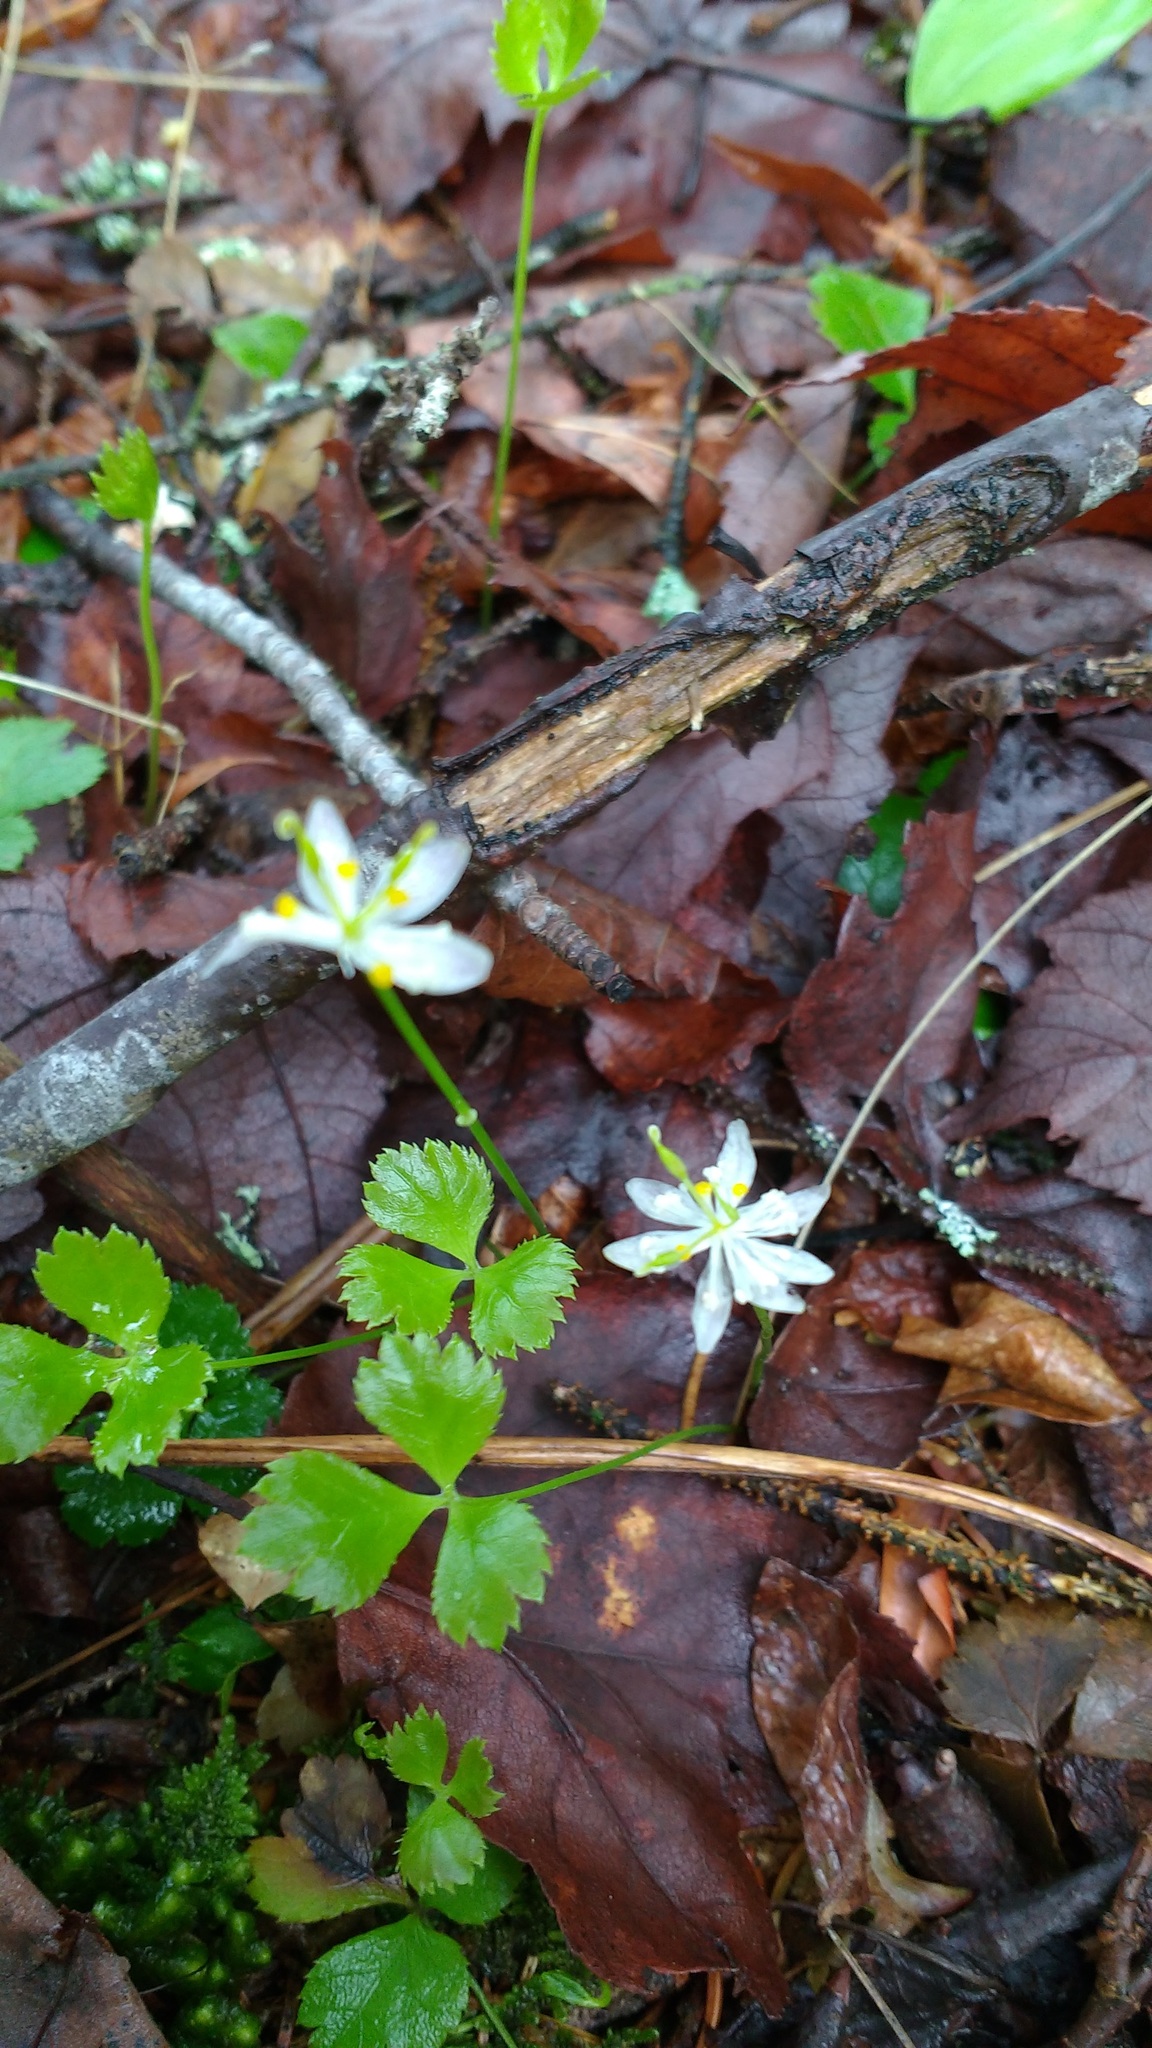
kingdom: Plantae
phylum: Tracheophyta
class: Magnoliopsida
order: Ranunculales
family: Ranunculaceae
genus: Coptis
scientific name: Coptis trifolia
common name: Canker-root
